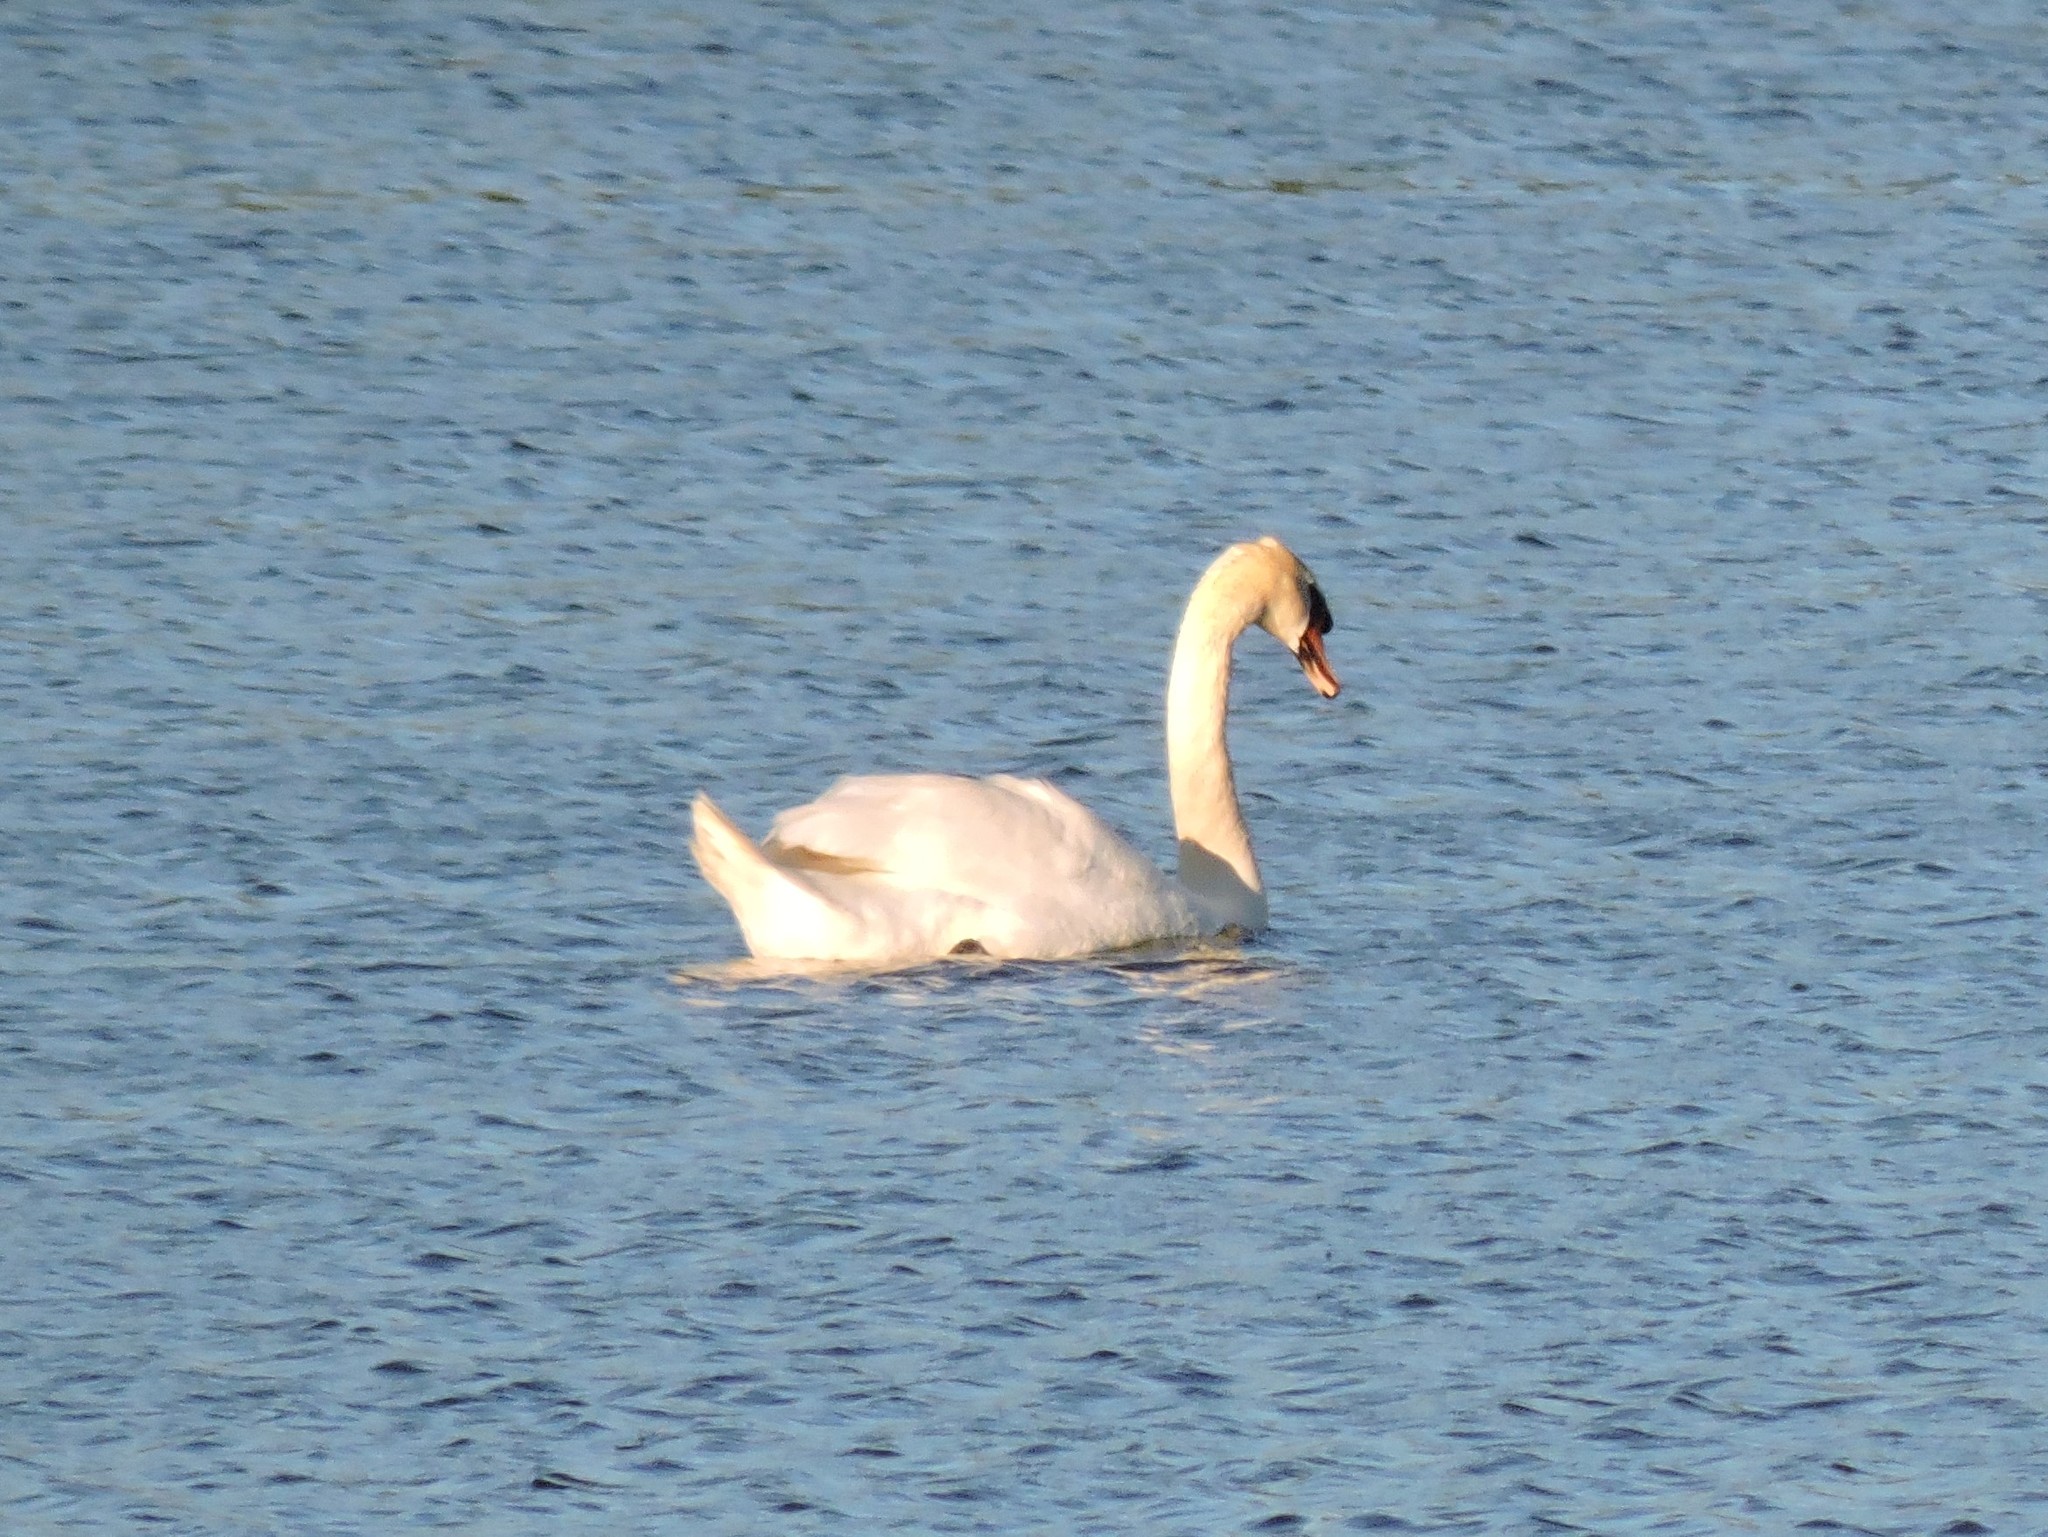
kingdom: Animalia
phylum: Chordata
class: Aves
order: Anseriformes
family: Anatidae
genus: Cygnus
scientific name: Cygnus olor
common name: Mute swan
